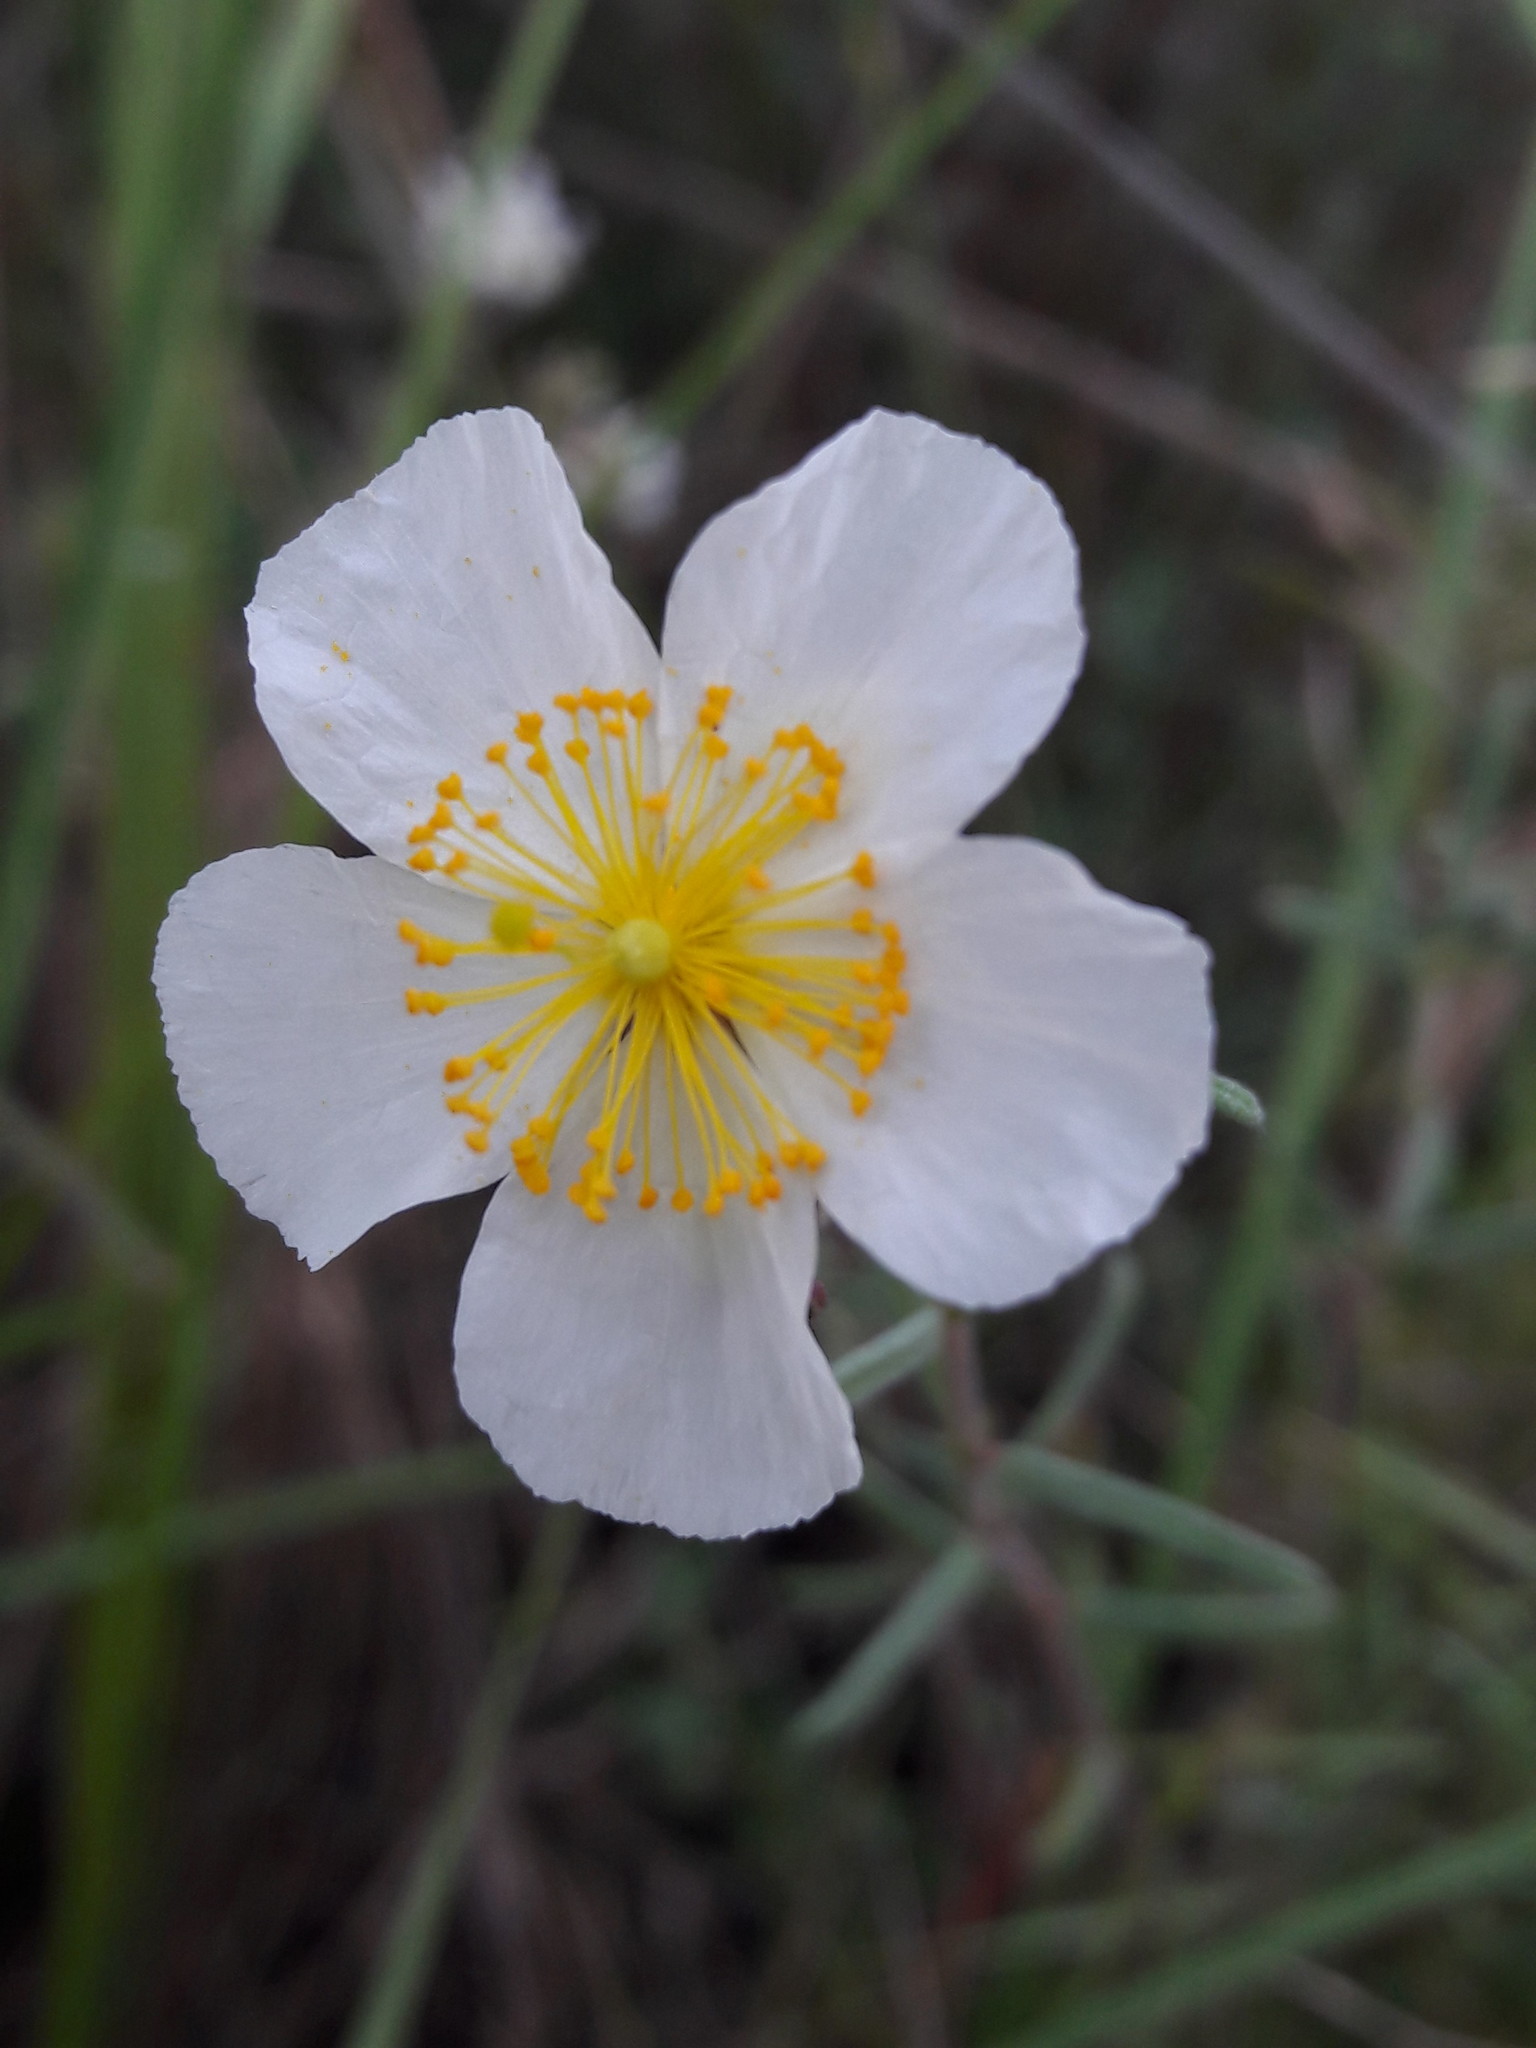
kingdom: Plantae
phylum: Tracheophyta
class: Magnoliopsida
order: Malvales
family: Cistaceae
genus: Helianthemum
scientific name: Helianthemum apenninum
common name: White rock-rose
